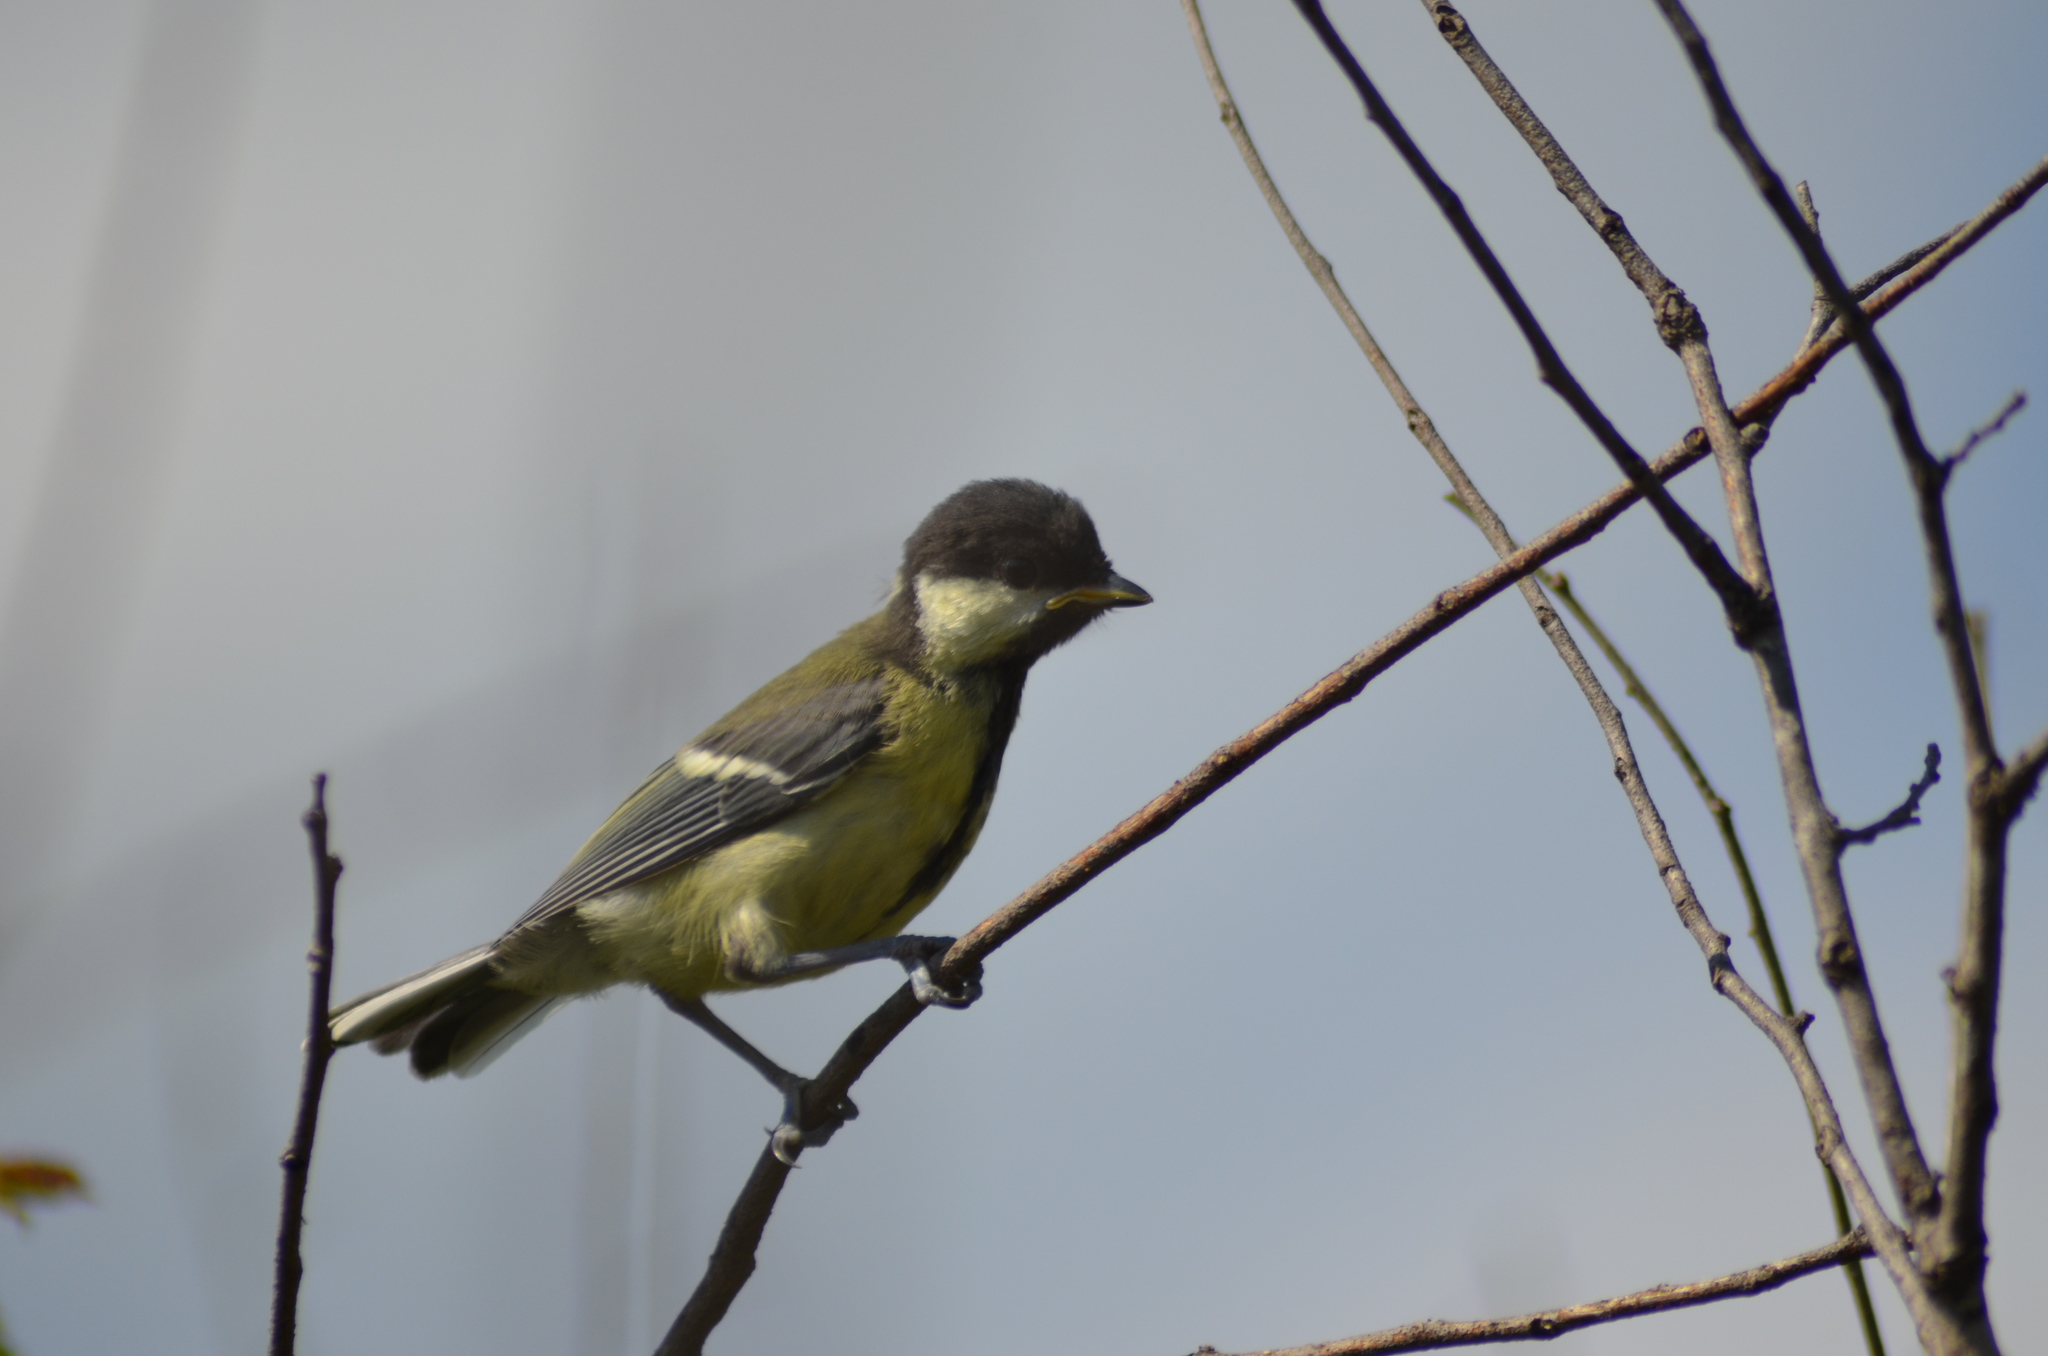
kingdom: Animalia
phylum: Chordata
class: Aves
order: Passeriformes
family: Paridae
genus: Parus
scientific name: Parus major
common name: Great tit
